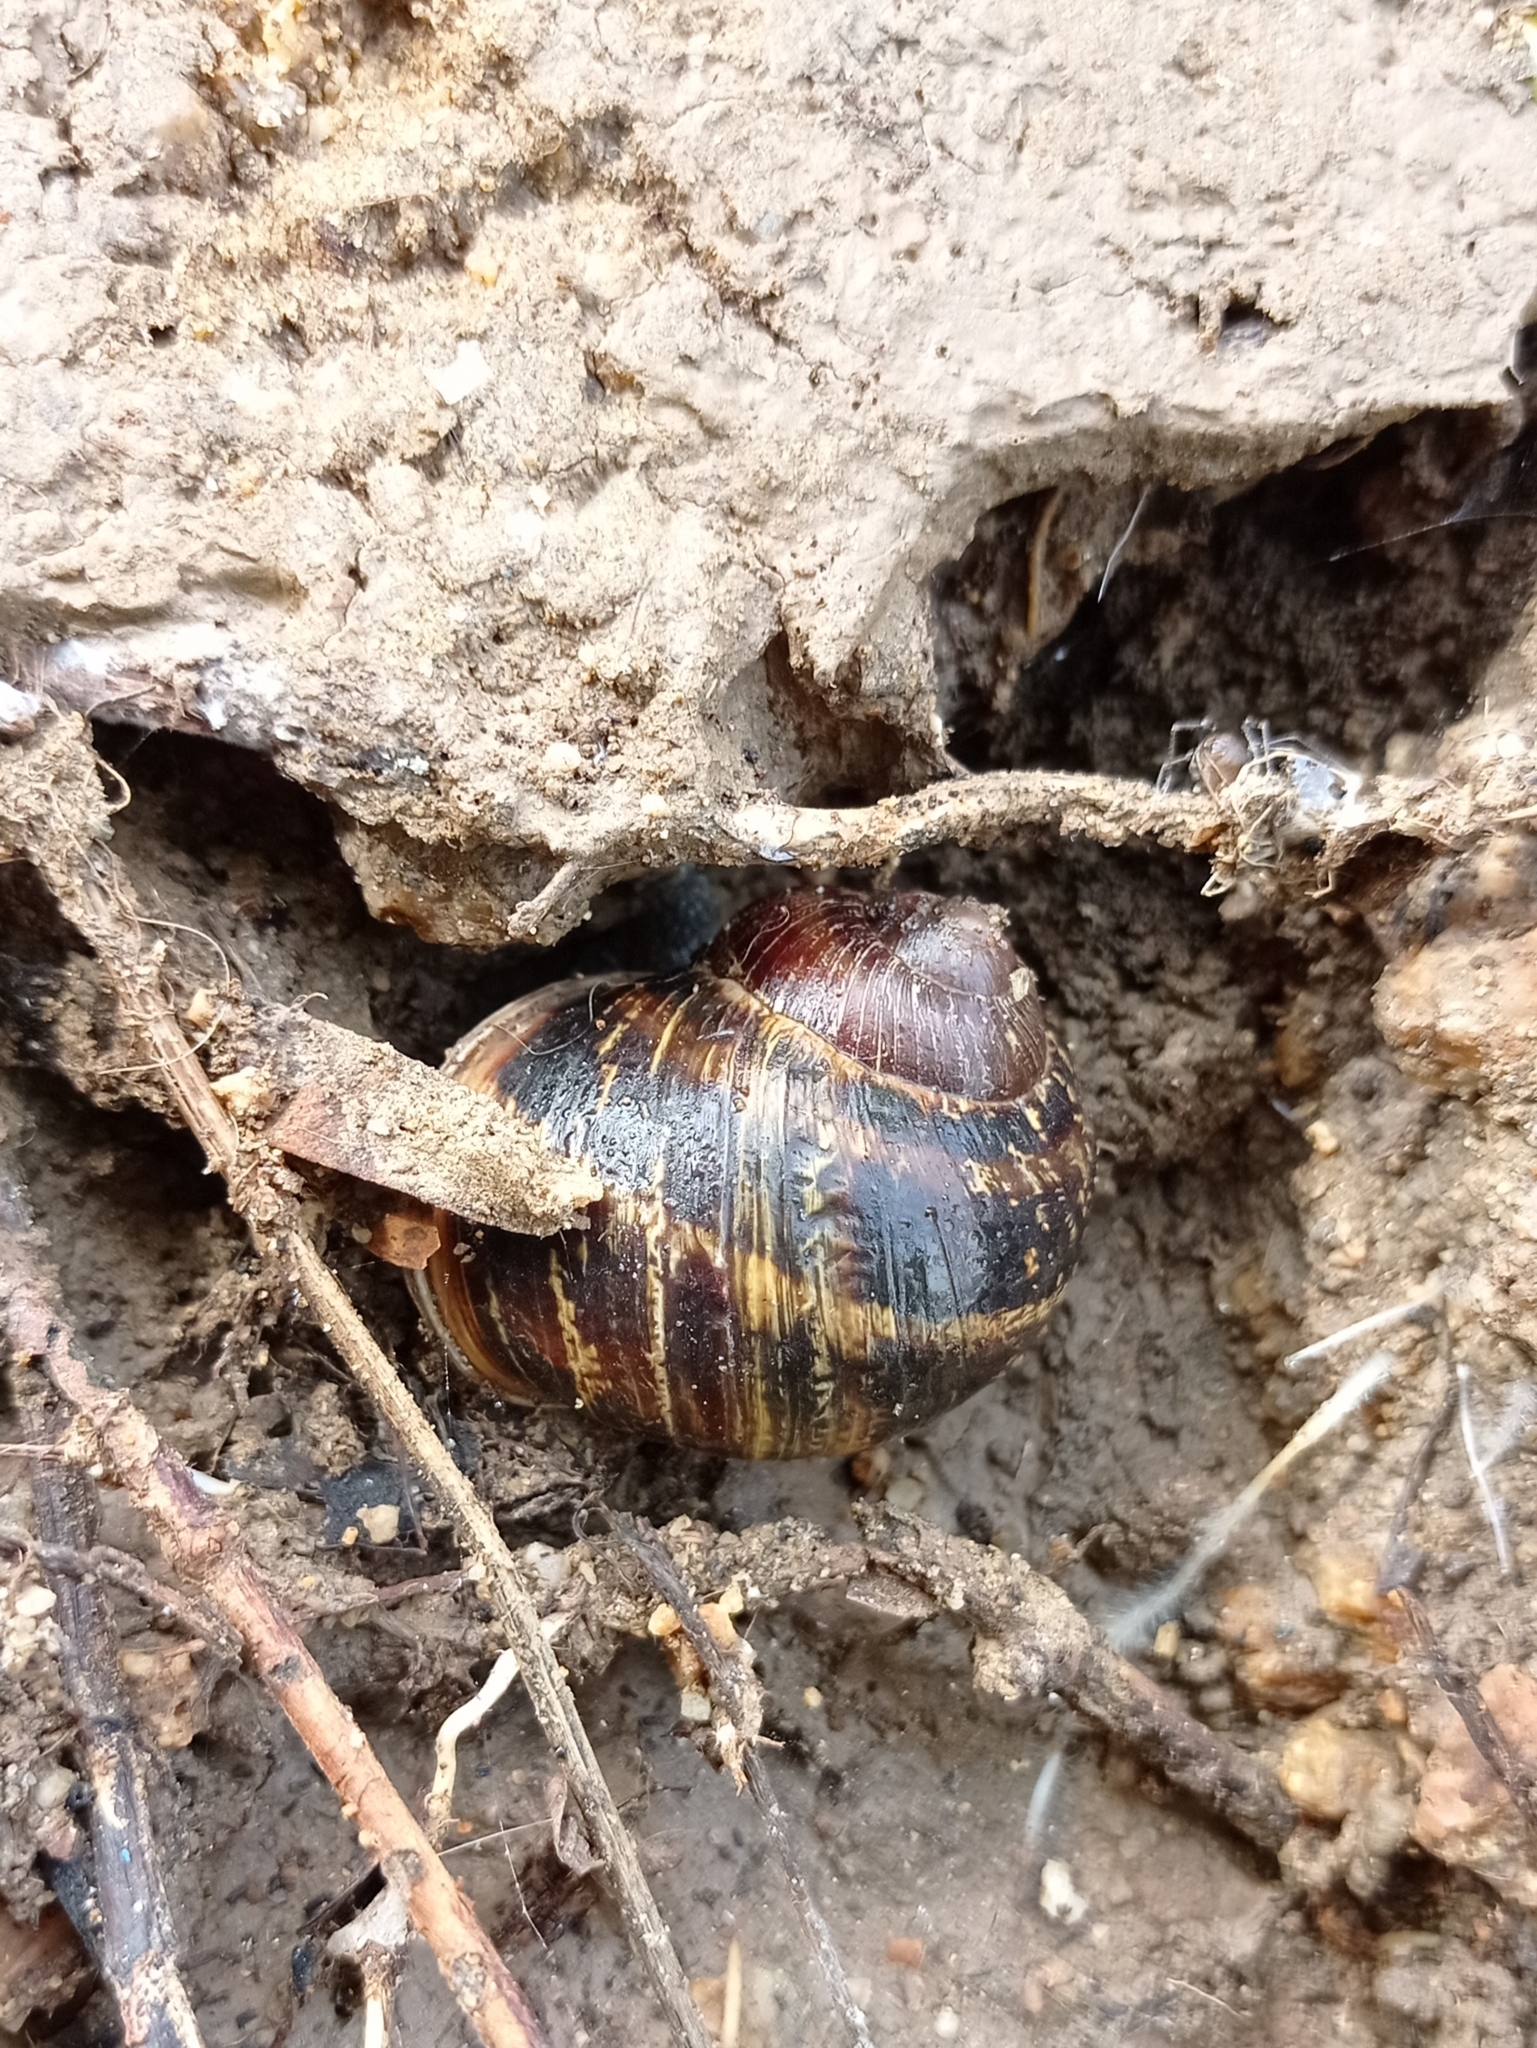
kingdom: Animalia
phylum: Mollusca
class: Gastropoda
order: Stylommatophora
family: Helicidae
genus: Cornu
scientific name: Cornu aspersum
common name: Brown garden snail
